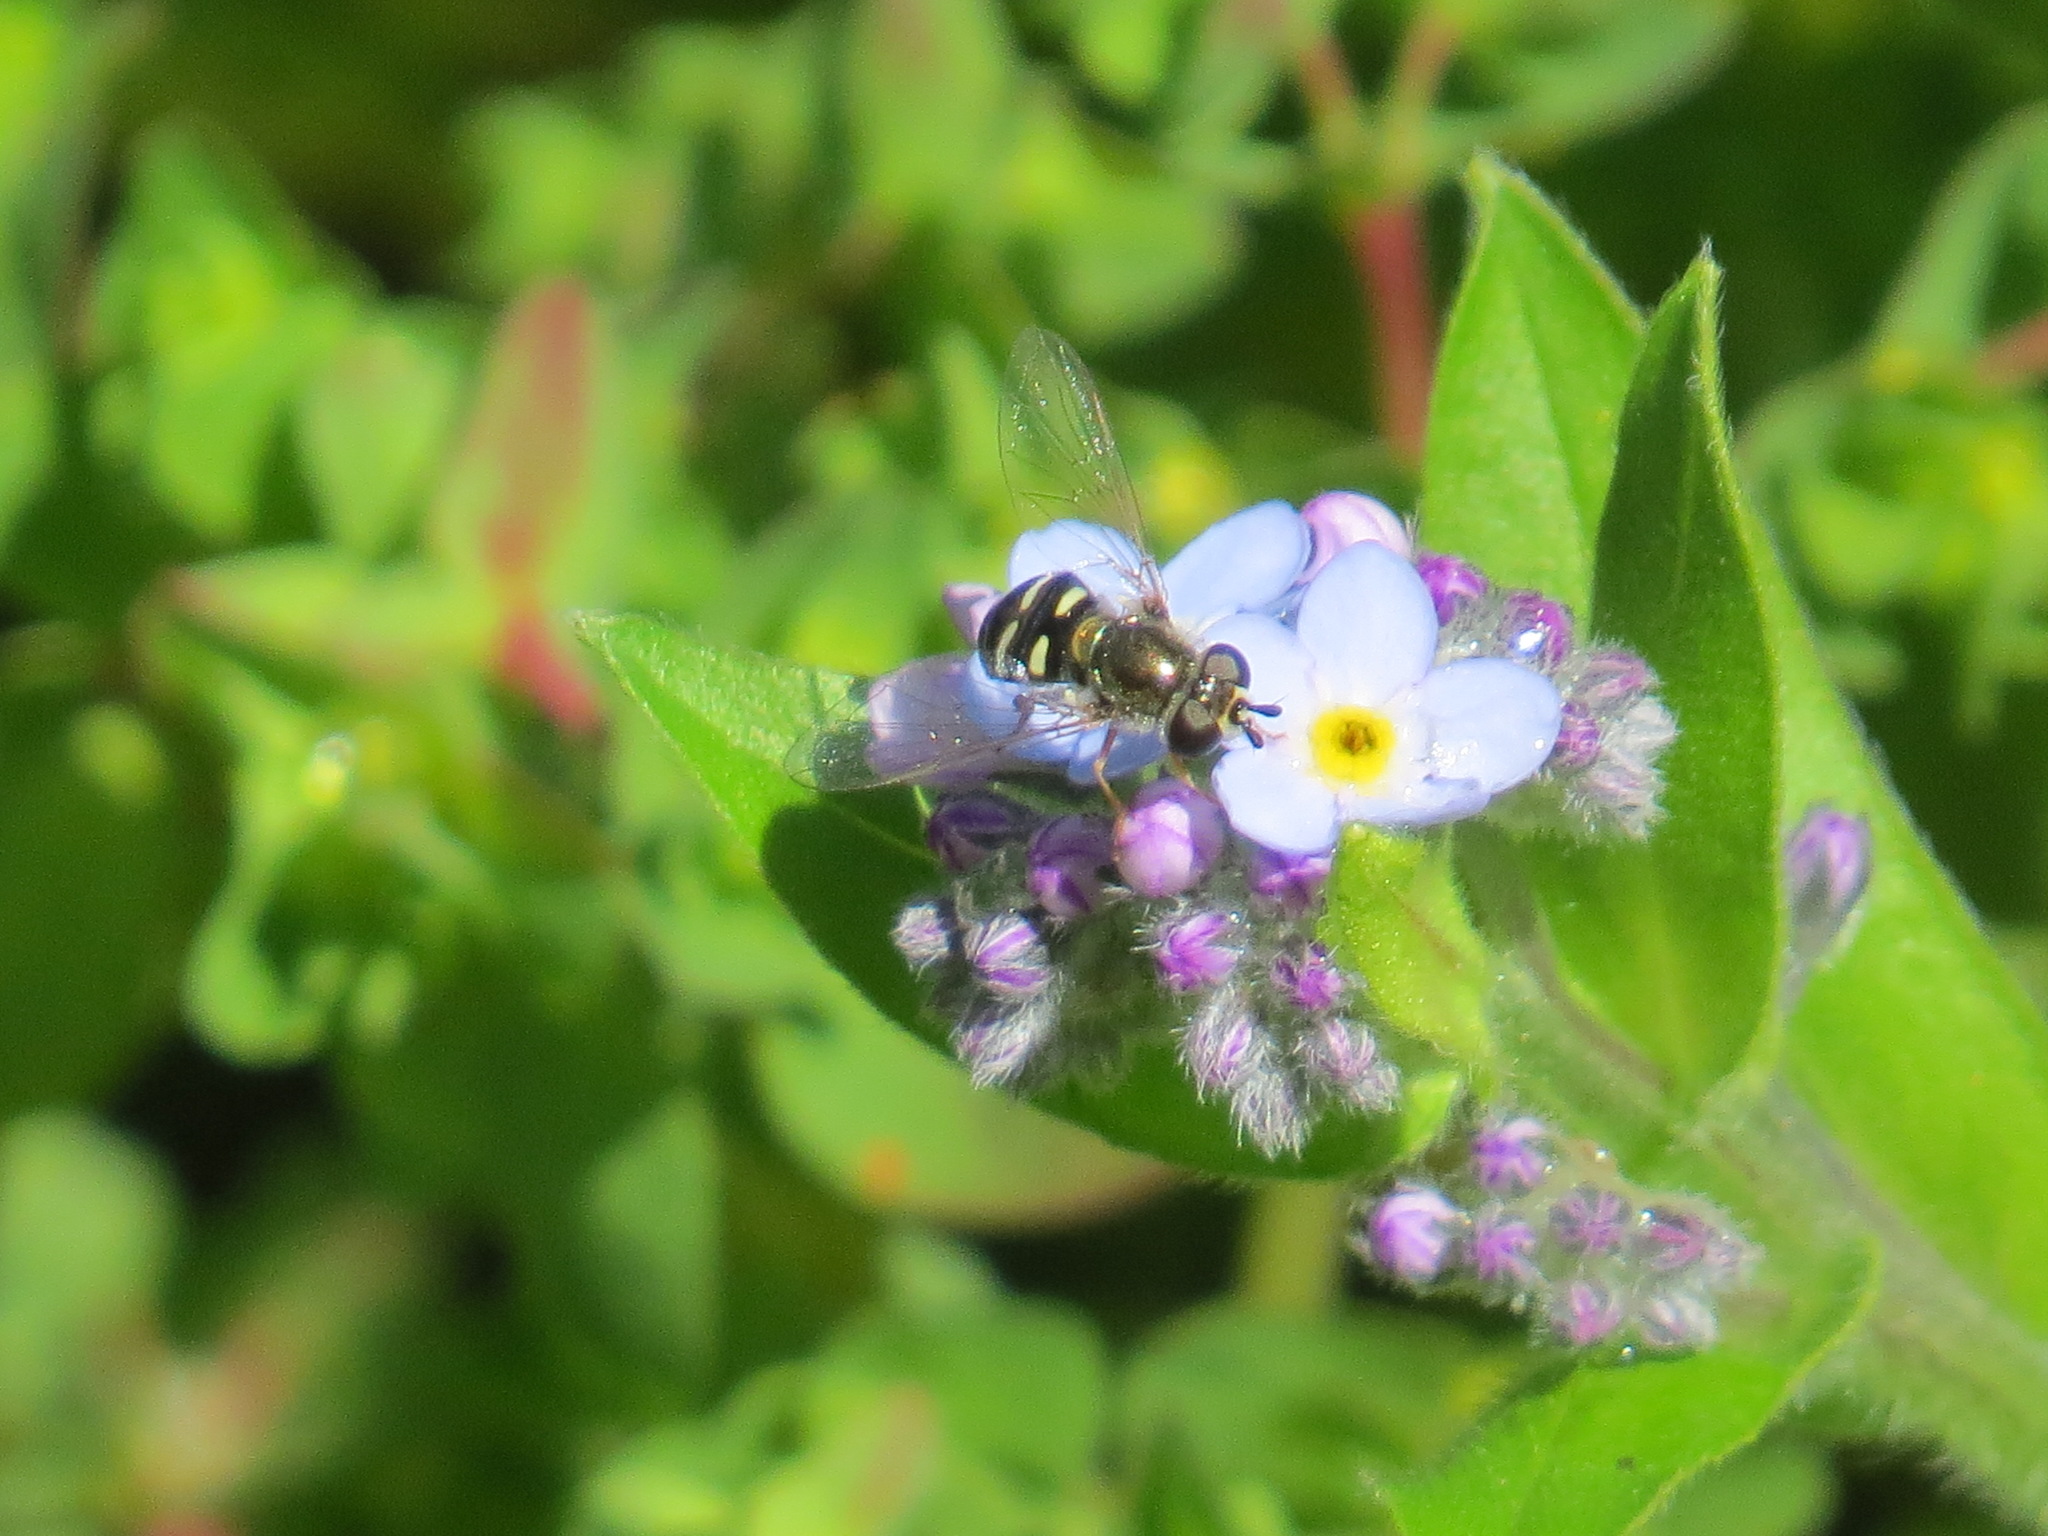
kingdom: Animalia
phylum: Arthropoda
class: Insecta
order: Diptera
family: Syrphidae
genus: Eupeodes
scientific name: Eupeodes volucris
